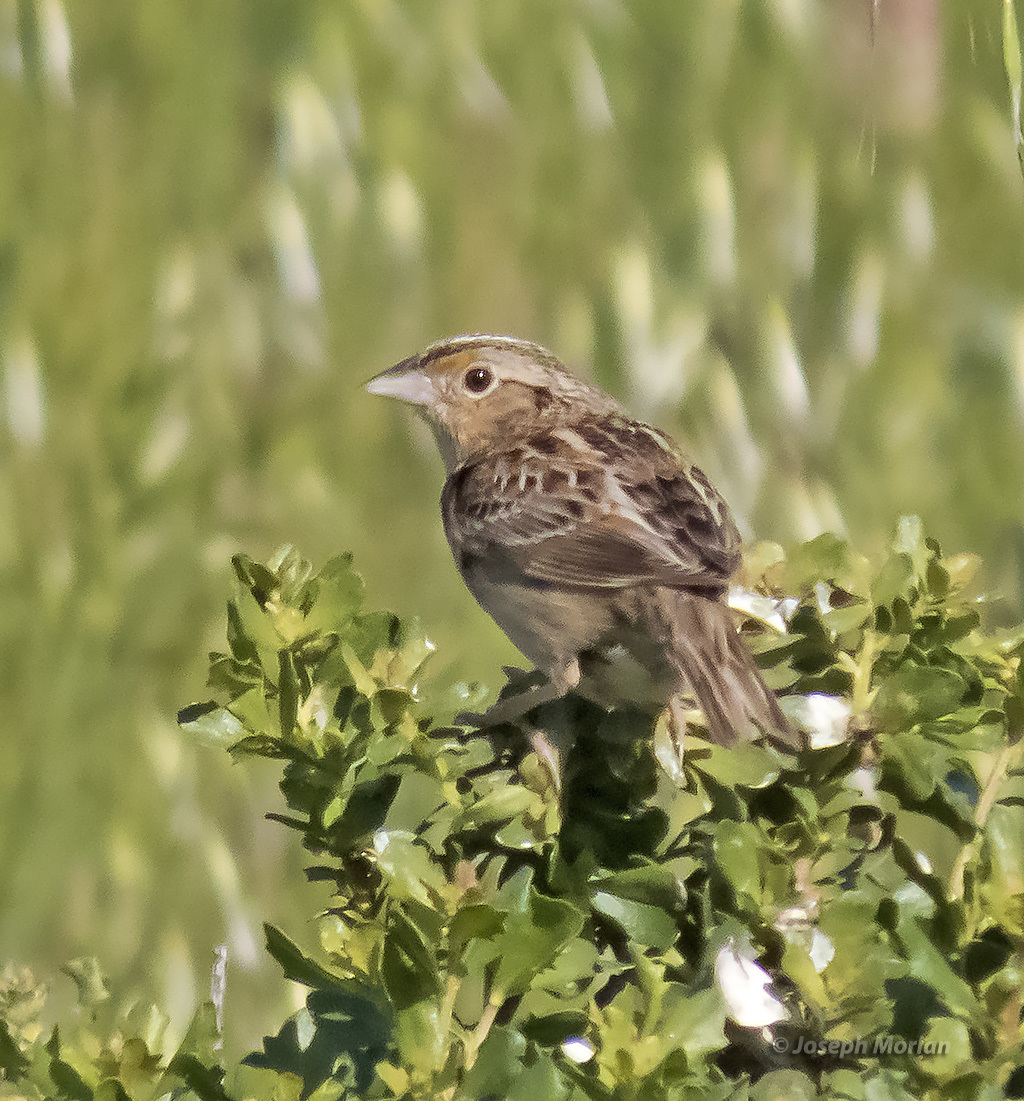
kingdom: Animalia
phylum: Chordata
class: Aves
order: Passeriformes
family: Passerellidae
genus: Ammodramus
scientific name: Ammodramus savannarum
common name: Grasshopper sparrow
